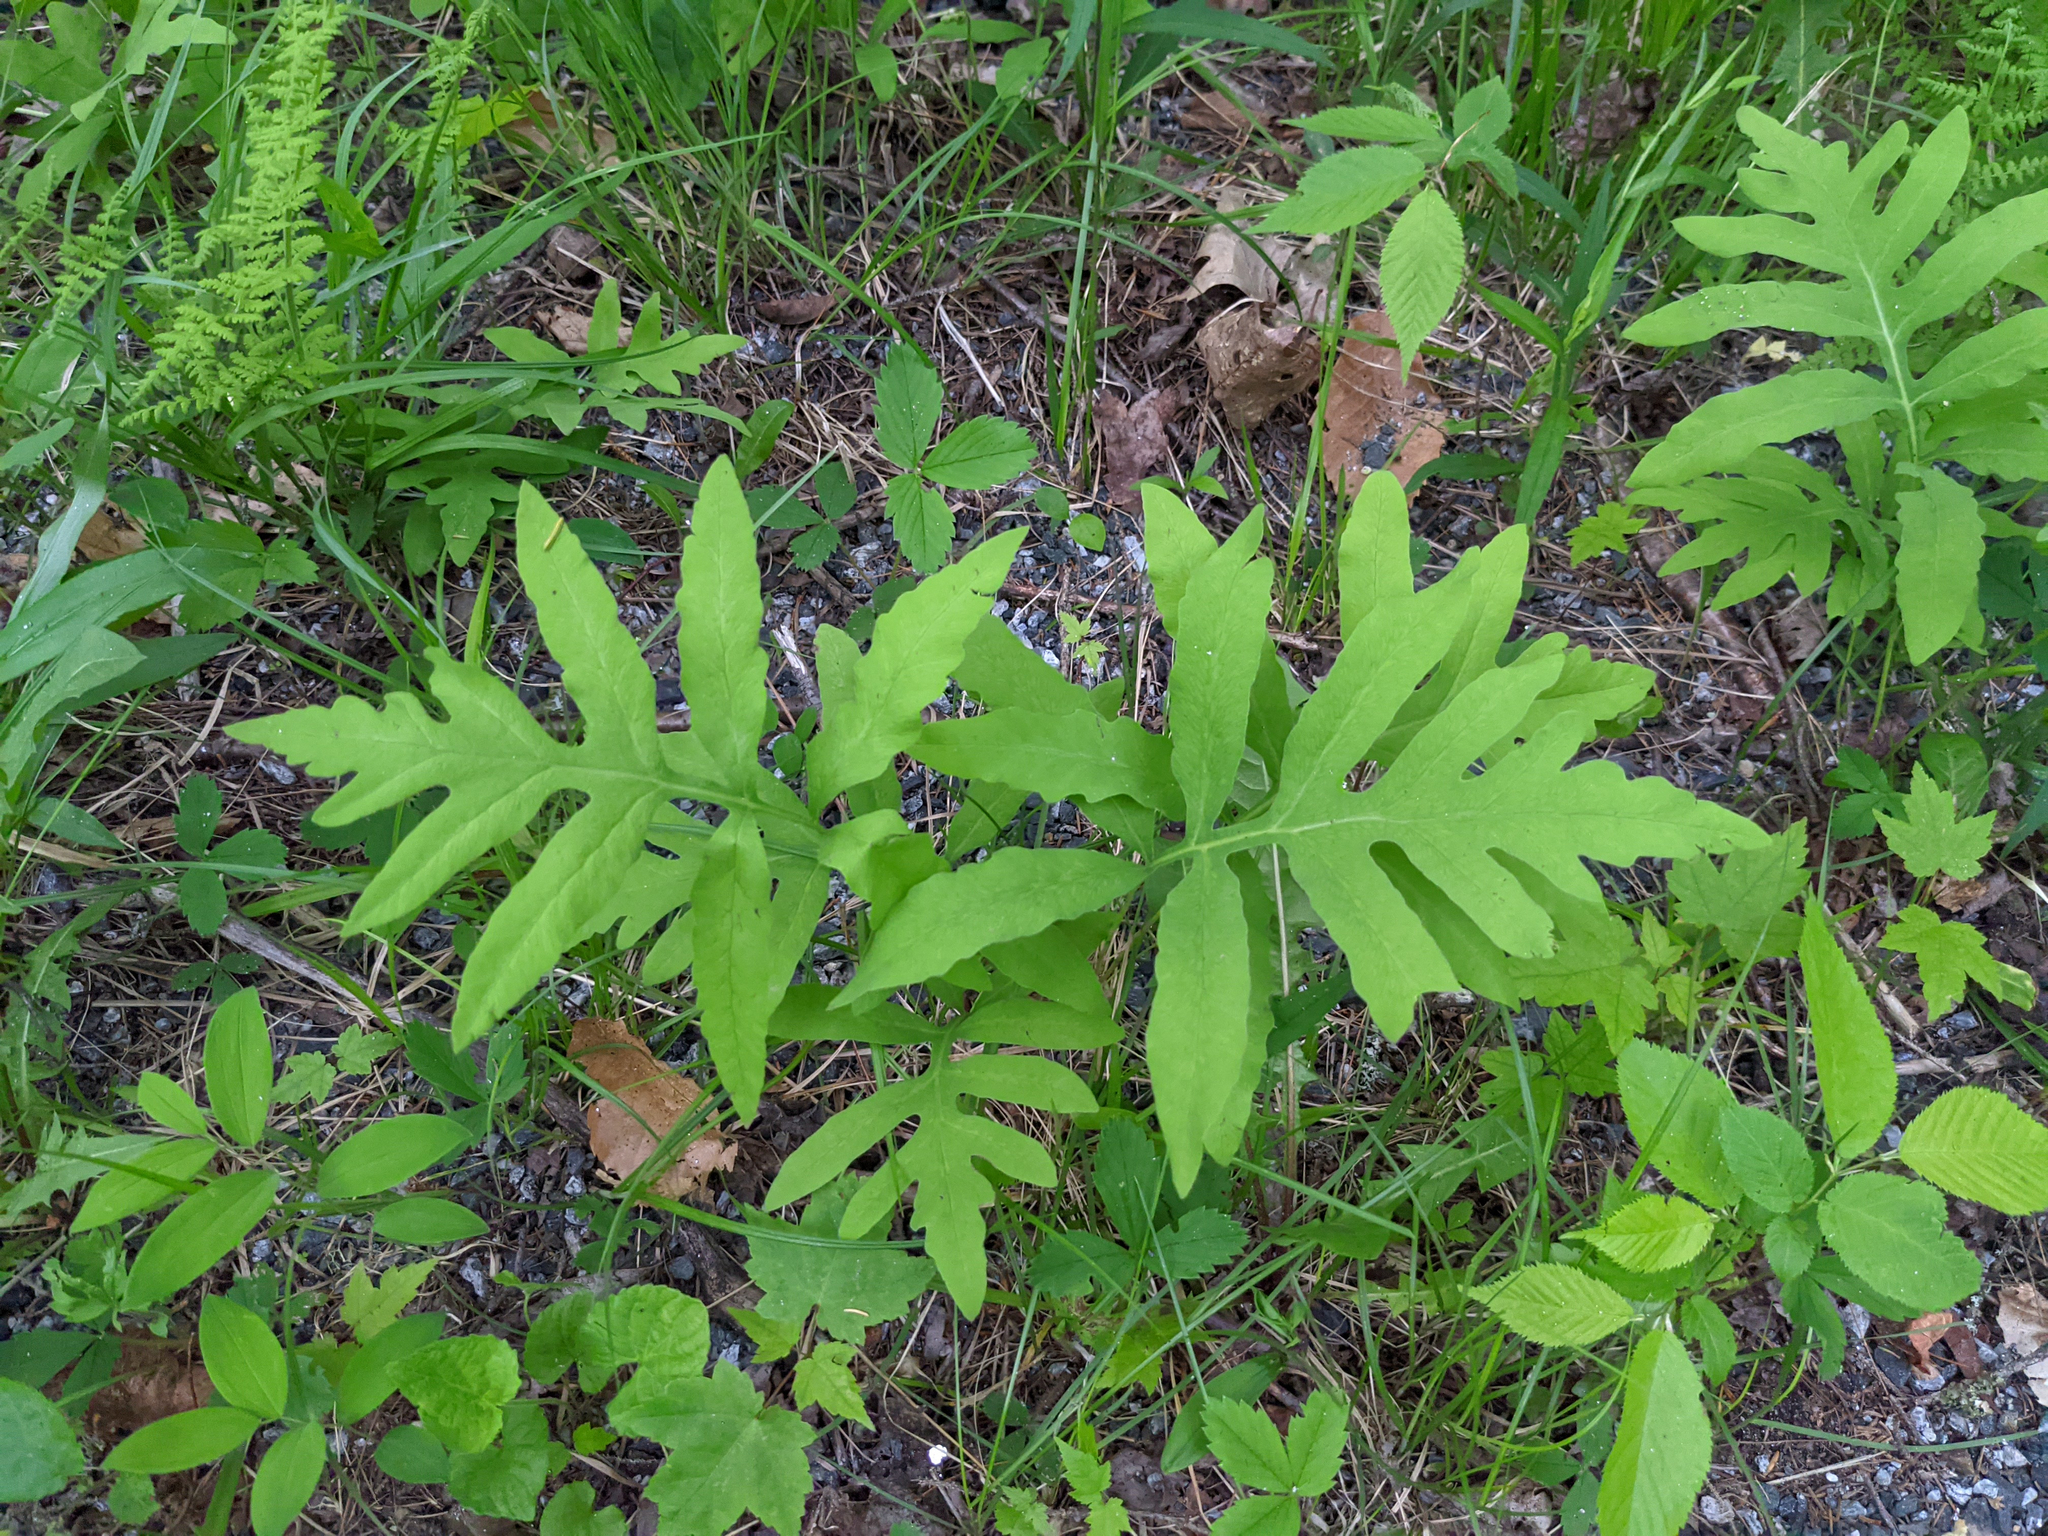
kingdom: Plantae
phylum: Tracheophyta
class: Polypodiopsida
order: Polypodiales
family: Onocleaceae
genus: Onoclea
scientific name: Onoclea sensibilis
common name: Sensitive fern
